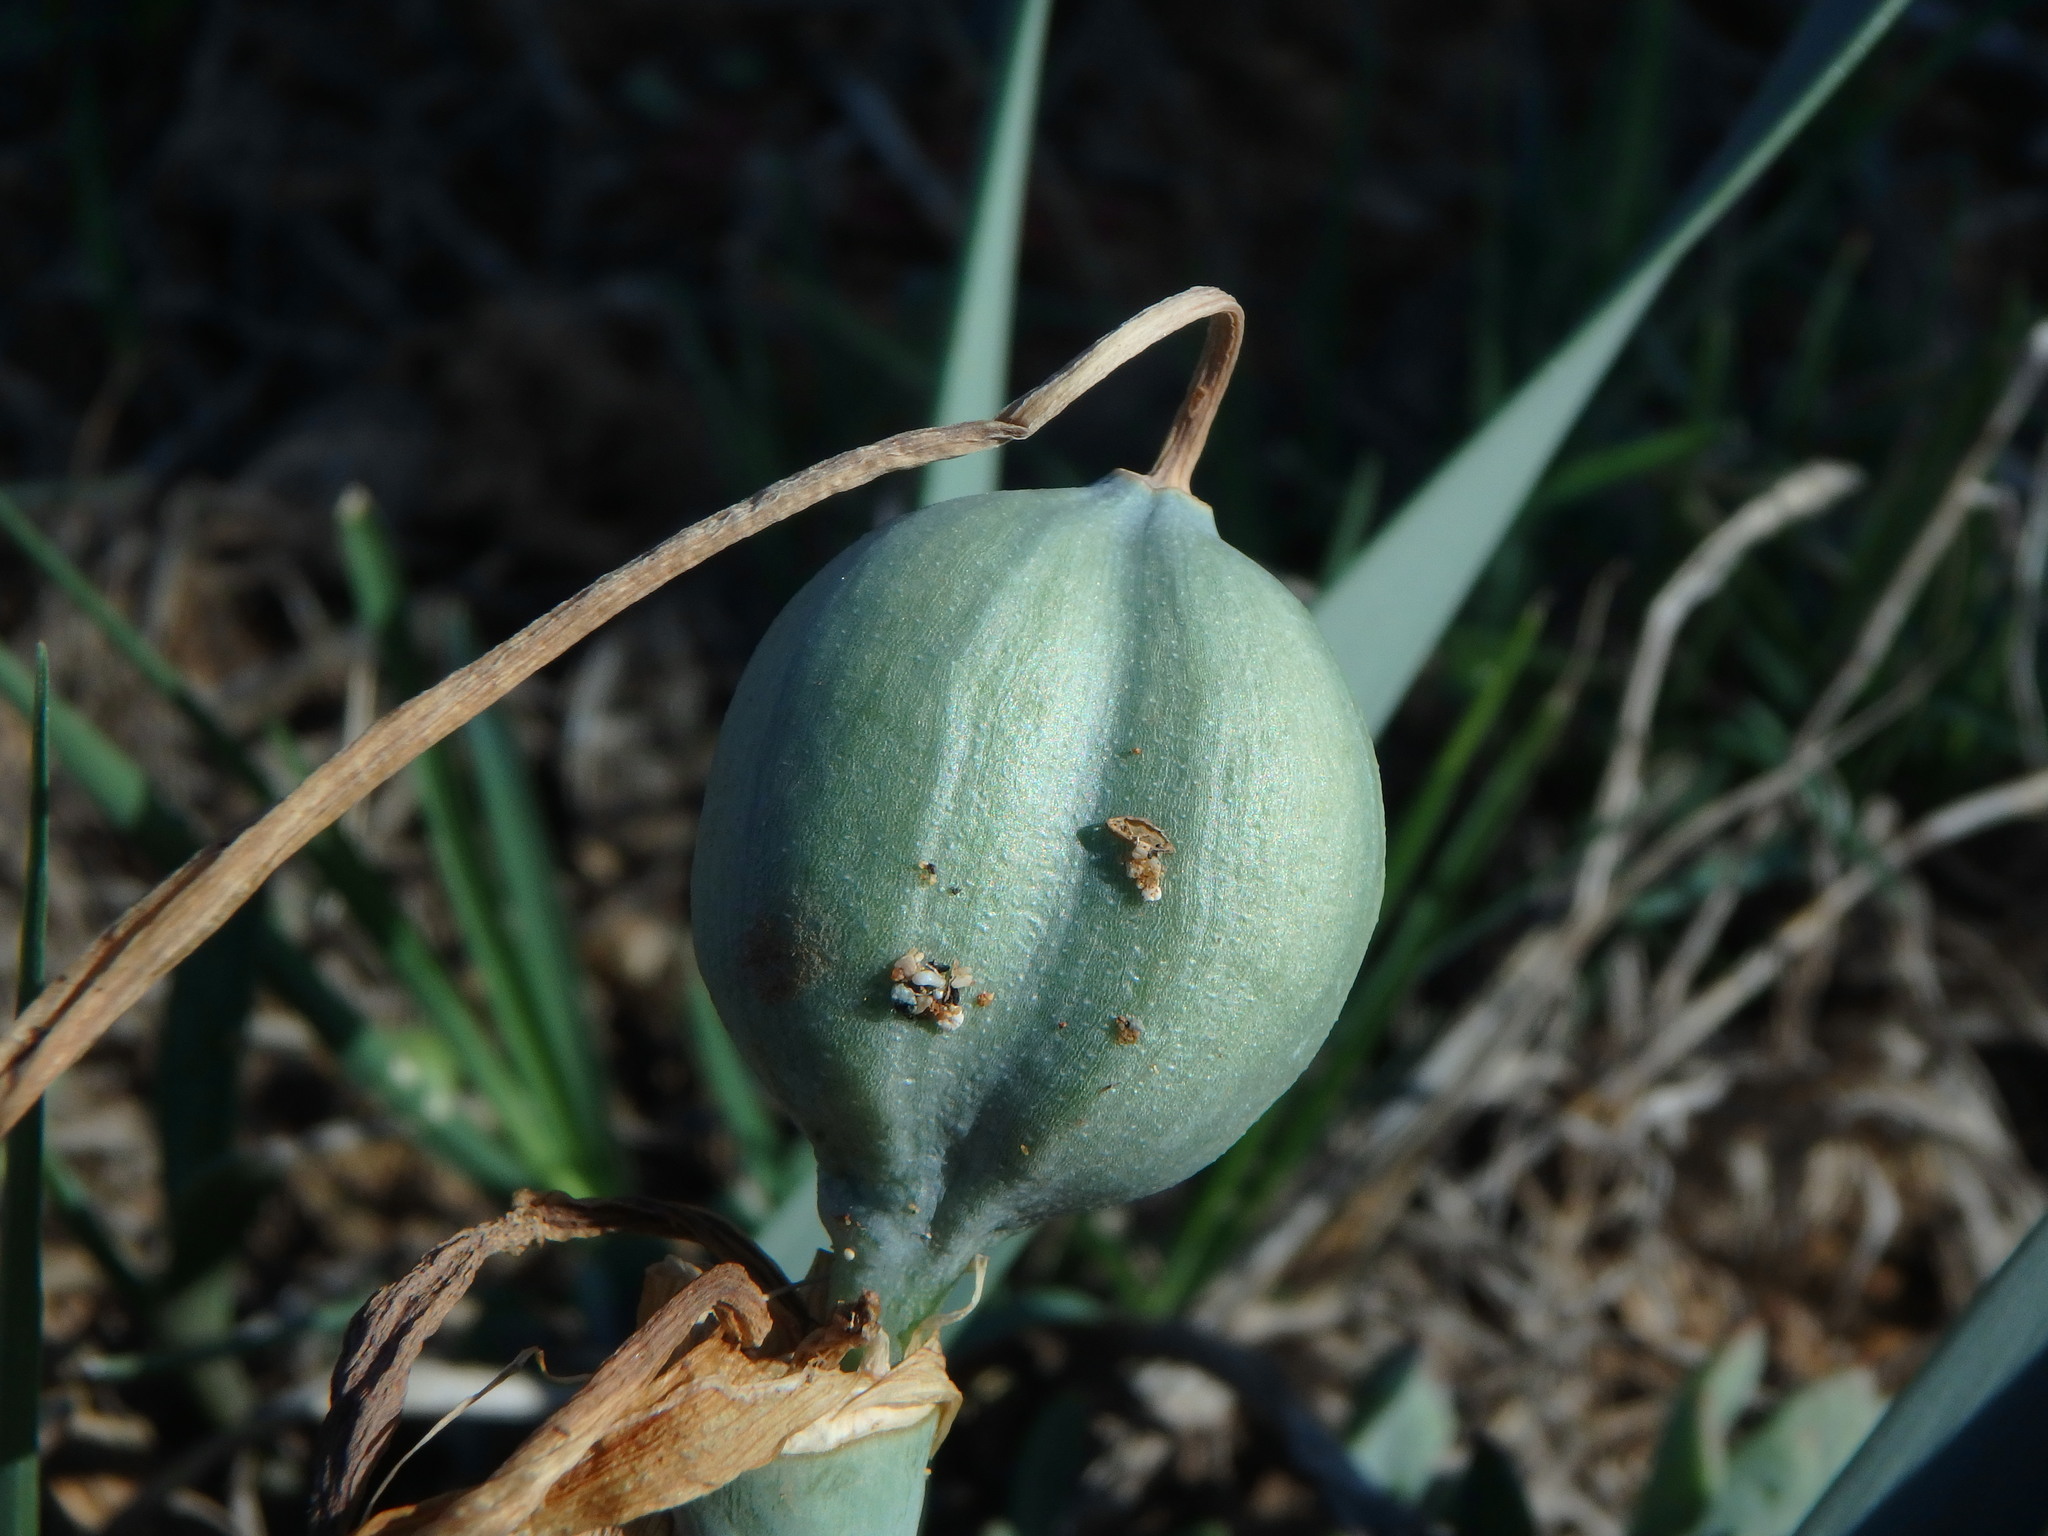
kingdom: Plantae
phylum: Tracheophyta
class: Liliopsida
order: Asparagales
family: Amaryllidaceae
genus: Pancratium
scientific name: Pancratium maritimum
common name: Sea-daffodil
